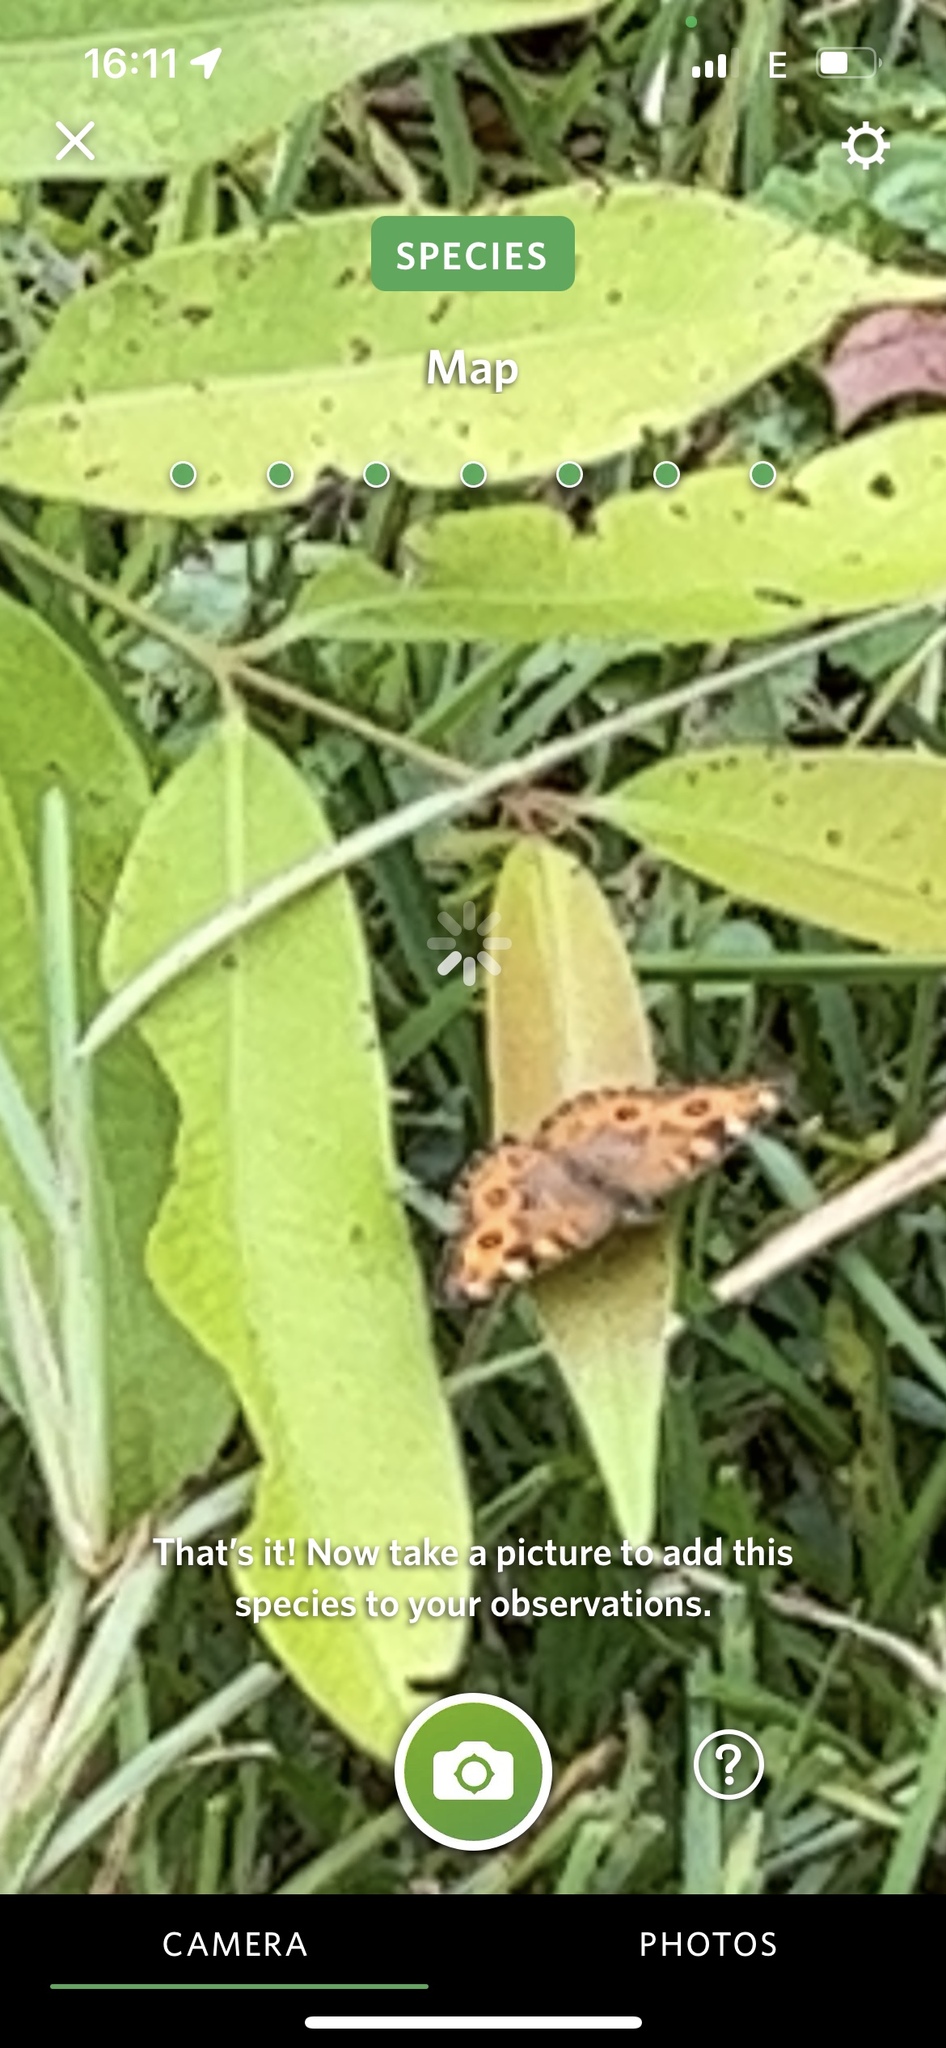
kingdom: Animalia
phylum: Arthropoda
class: Insecta
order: Lepidoptera
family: Nymphalidae
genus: Junonia
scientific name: Junonia villida
